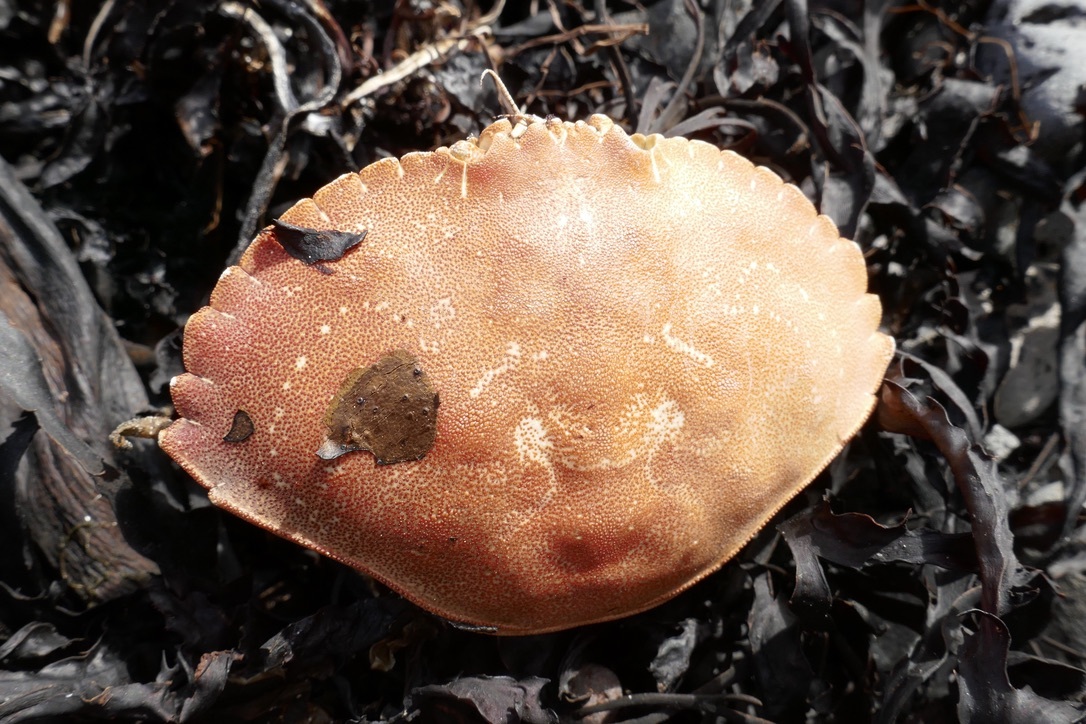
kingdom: Animalia
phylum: Arthropoda
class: Malacostraca
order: Decapoda
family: Cancridae
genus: Cancer
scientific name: Cancer irroratus
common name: Atlantic rock crab
